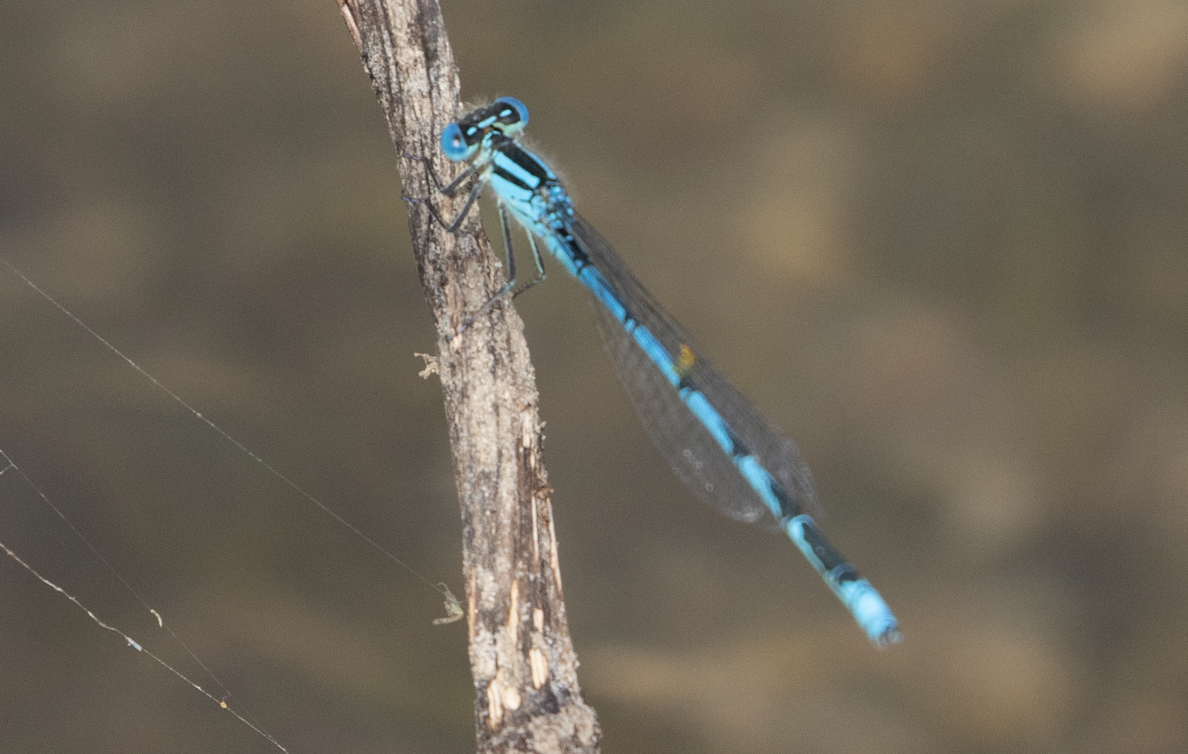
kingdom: Animalia
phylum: Arthropoda
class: Insecta
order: Odonata
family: Coenagrionidae
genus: Erythromma
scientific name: Erythromma lindenii
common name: Blue-eye
